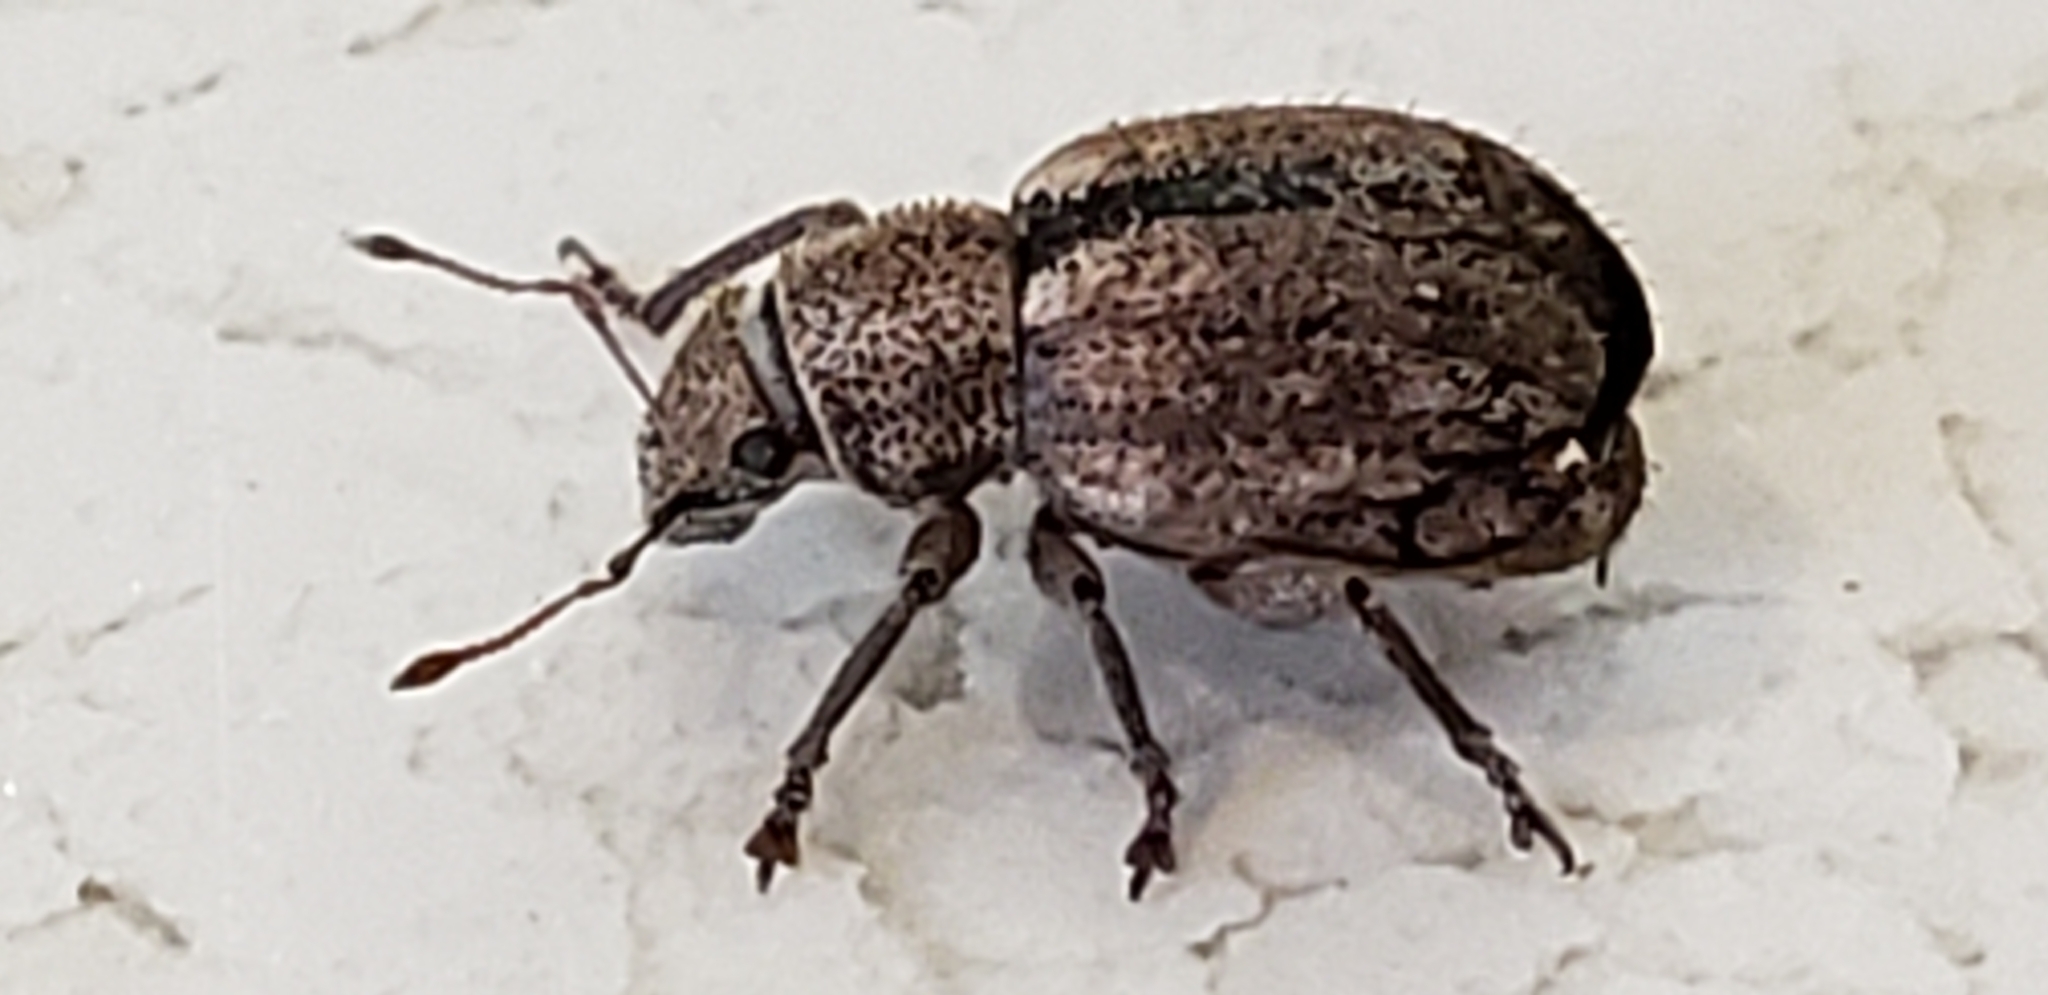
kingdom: Animalia
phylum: Arthropoda
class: Insecta
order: Coleoptera
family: Curculionidae
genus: Strophosoma
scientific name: Strophosoma melanogrammum
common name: Weevil
